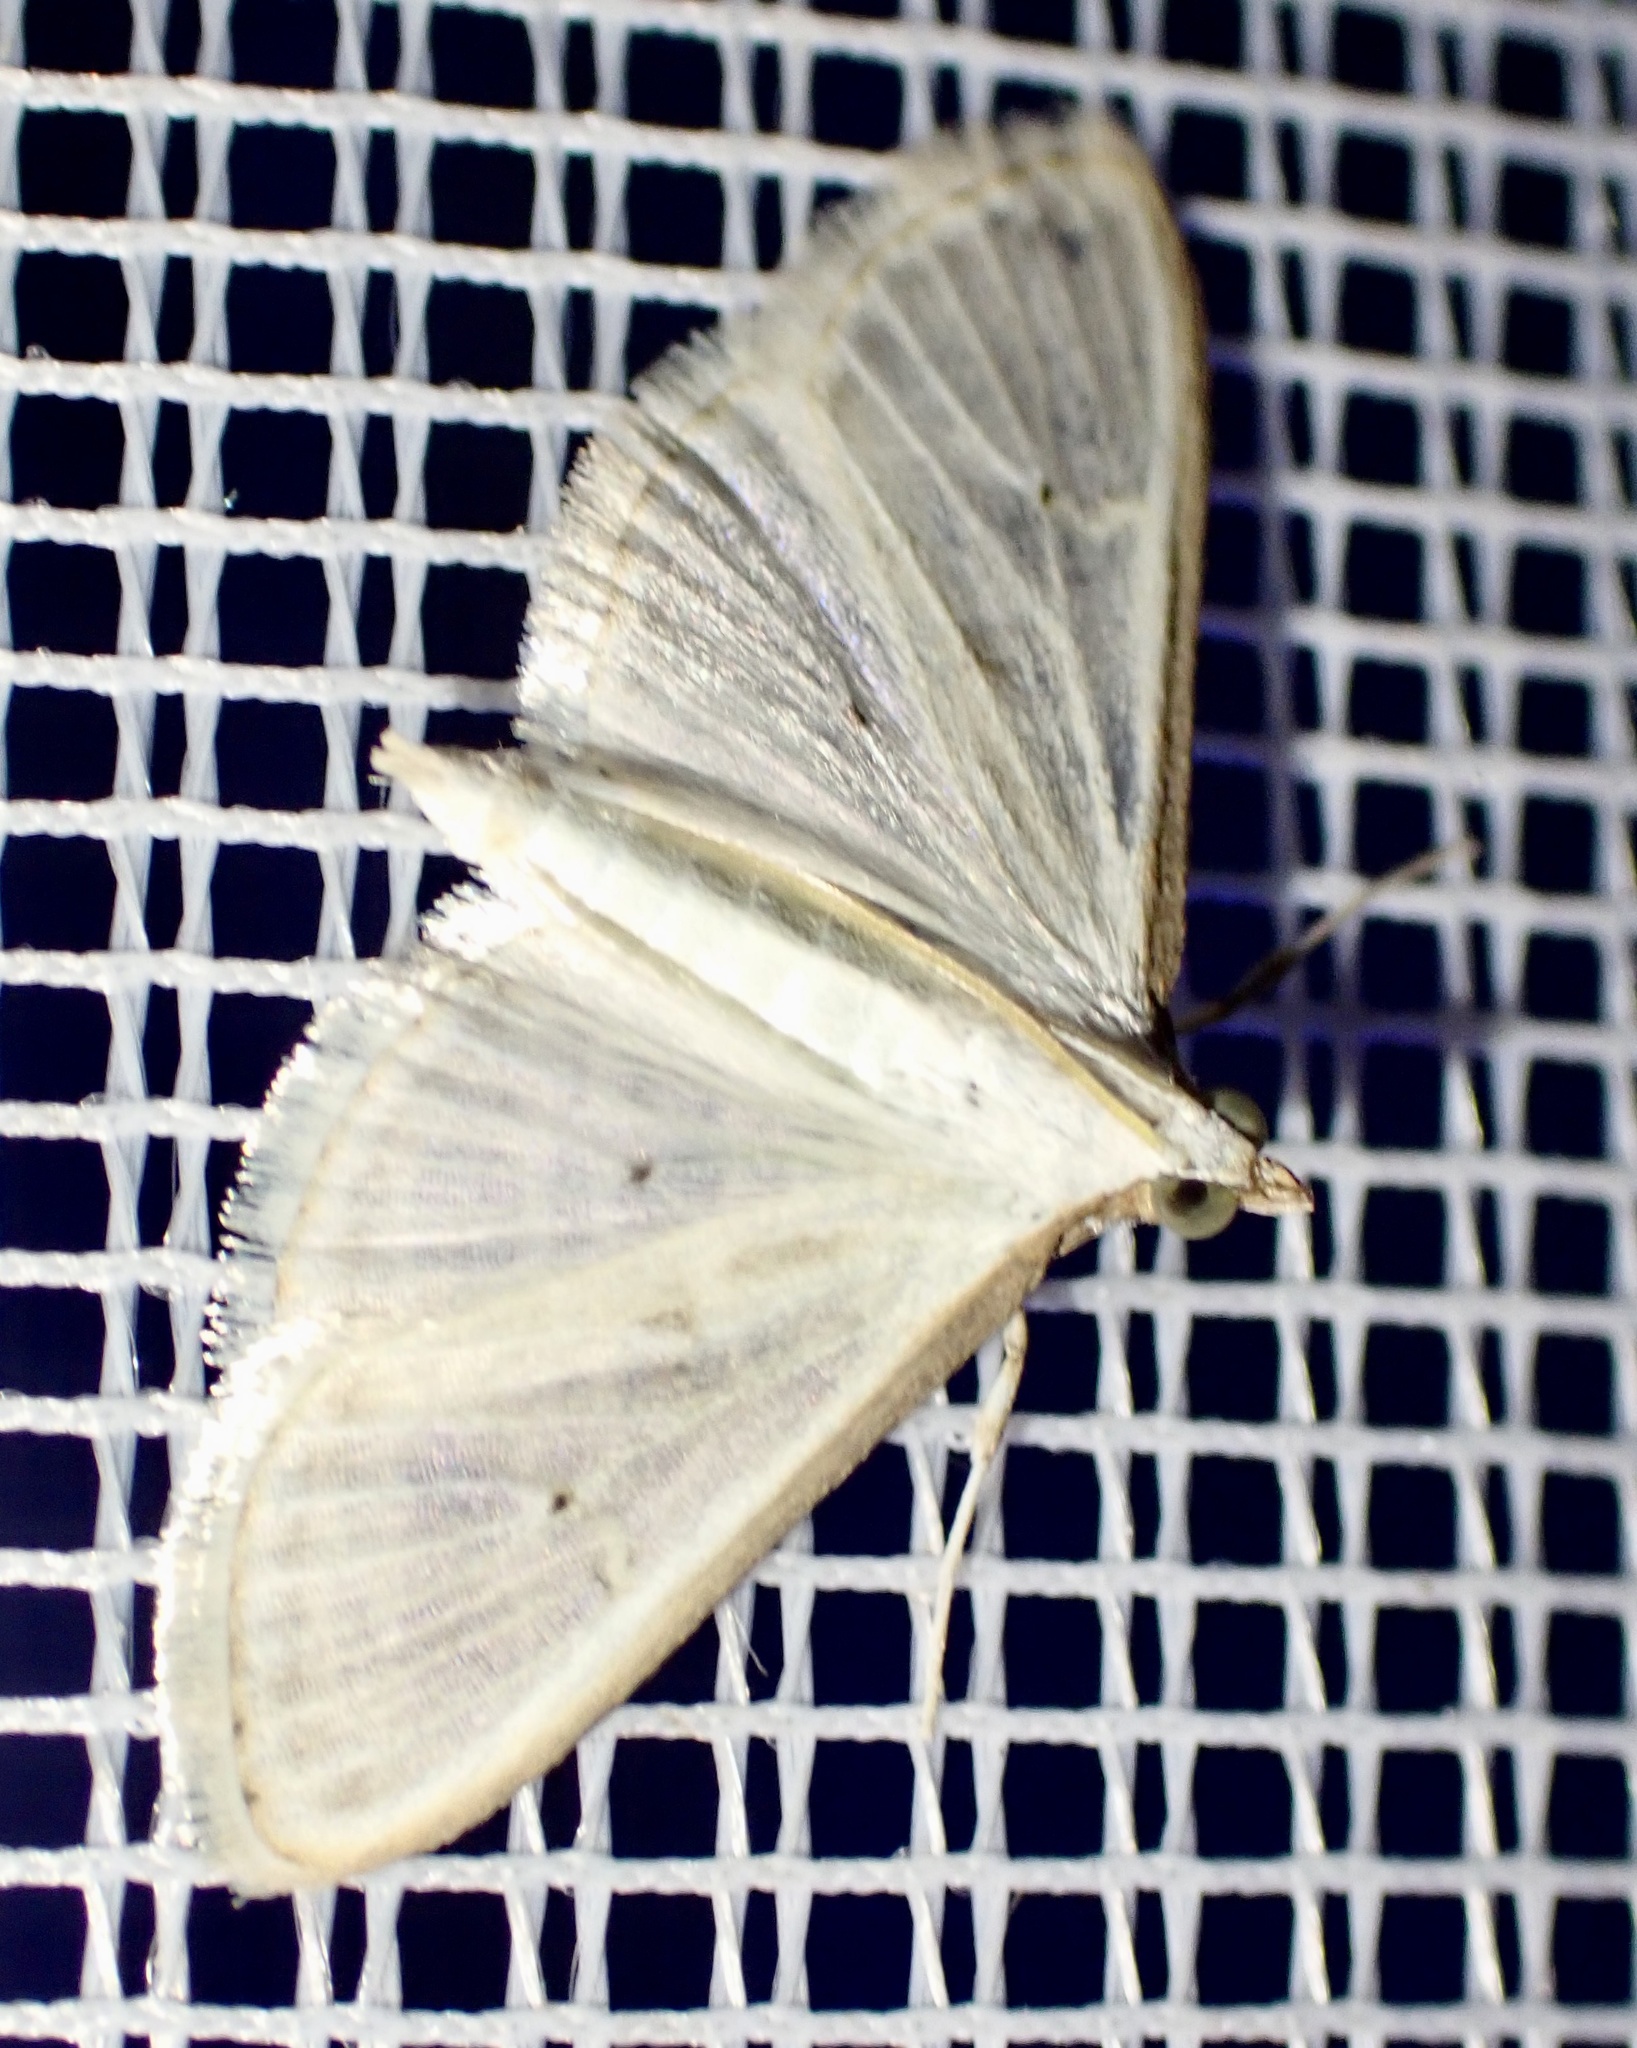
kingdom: Animalia
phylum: Arthropoda
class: Insecta
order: Lepidoptera
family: Crambidae
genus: Palpita
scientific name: Palpita vitrealis
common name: Olive-tree pearl
